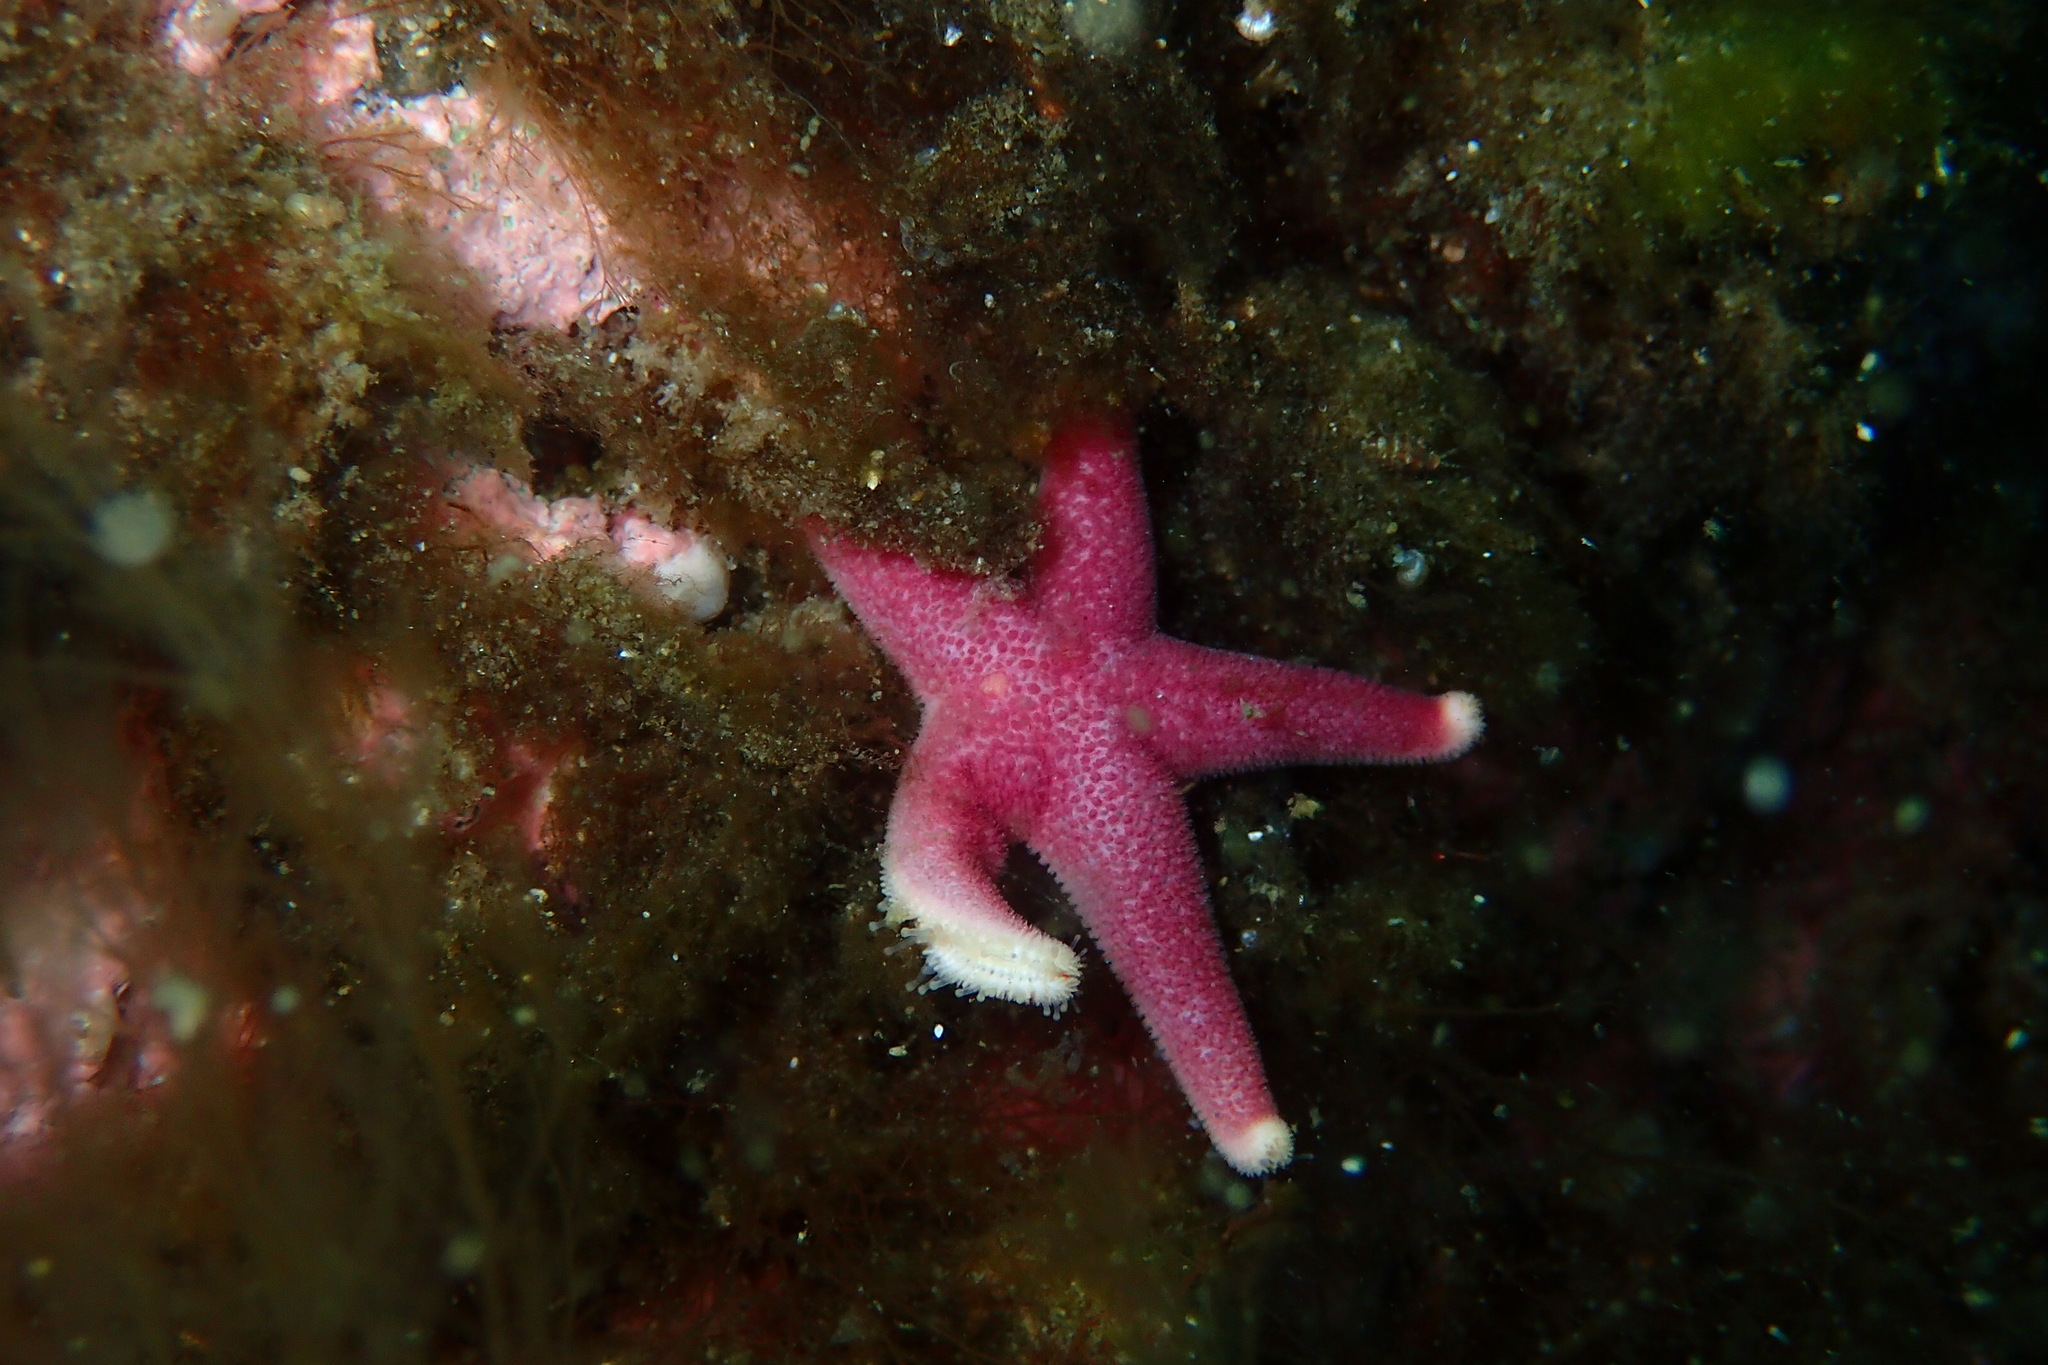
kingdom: Animalia
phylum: Echinodermata
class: Asteroidea
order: Spinulosida
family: Echinasteridae
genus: Henricia
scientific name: Henricia
